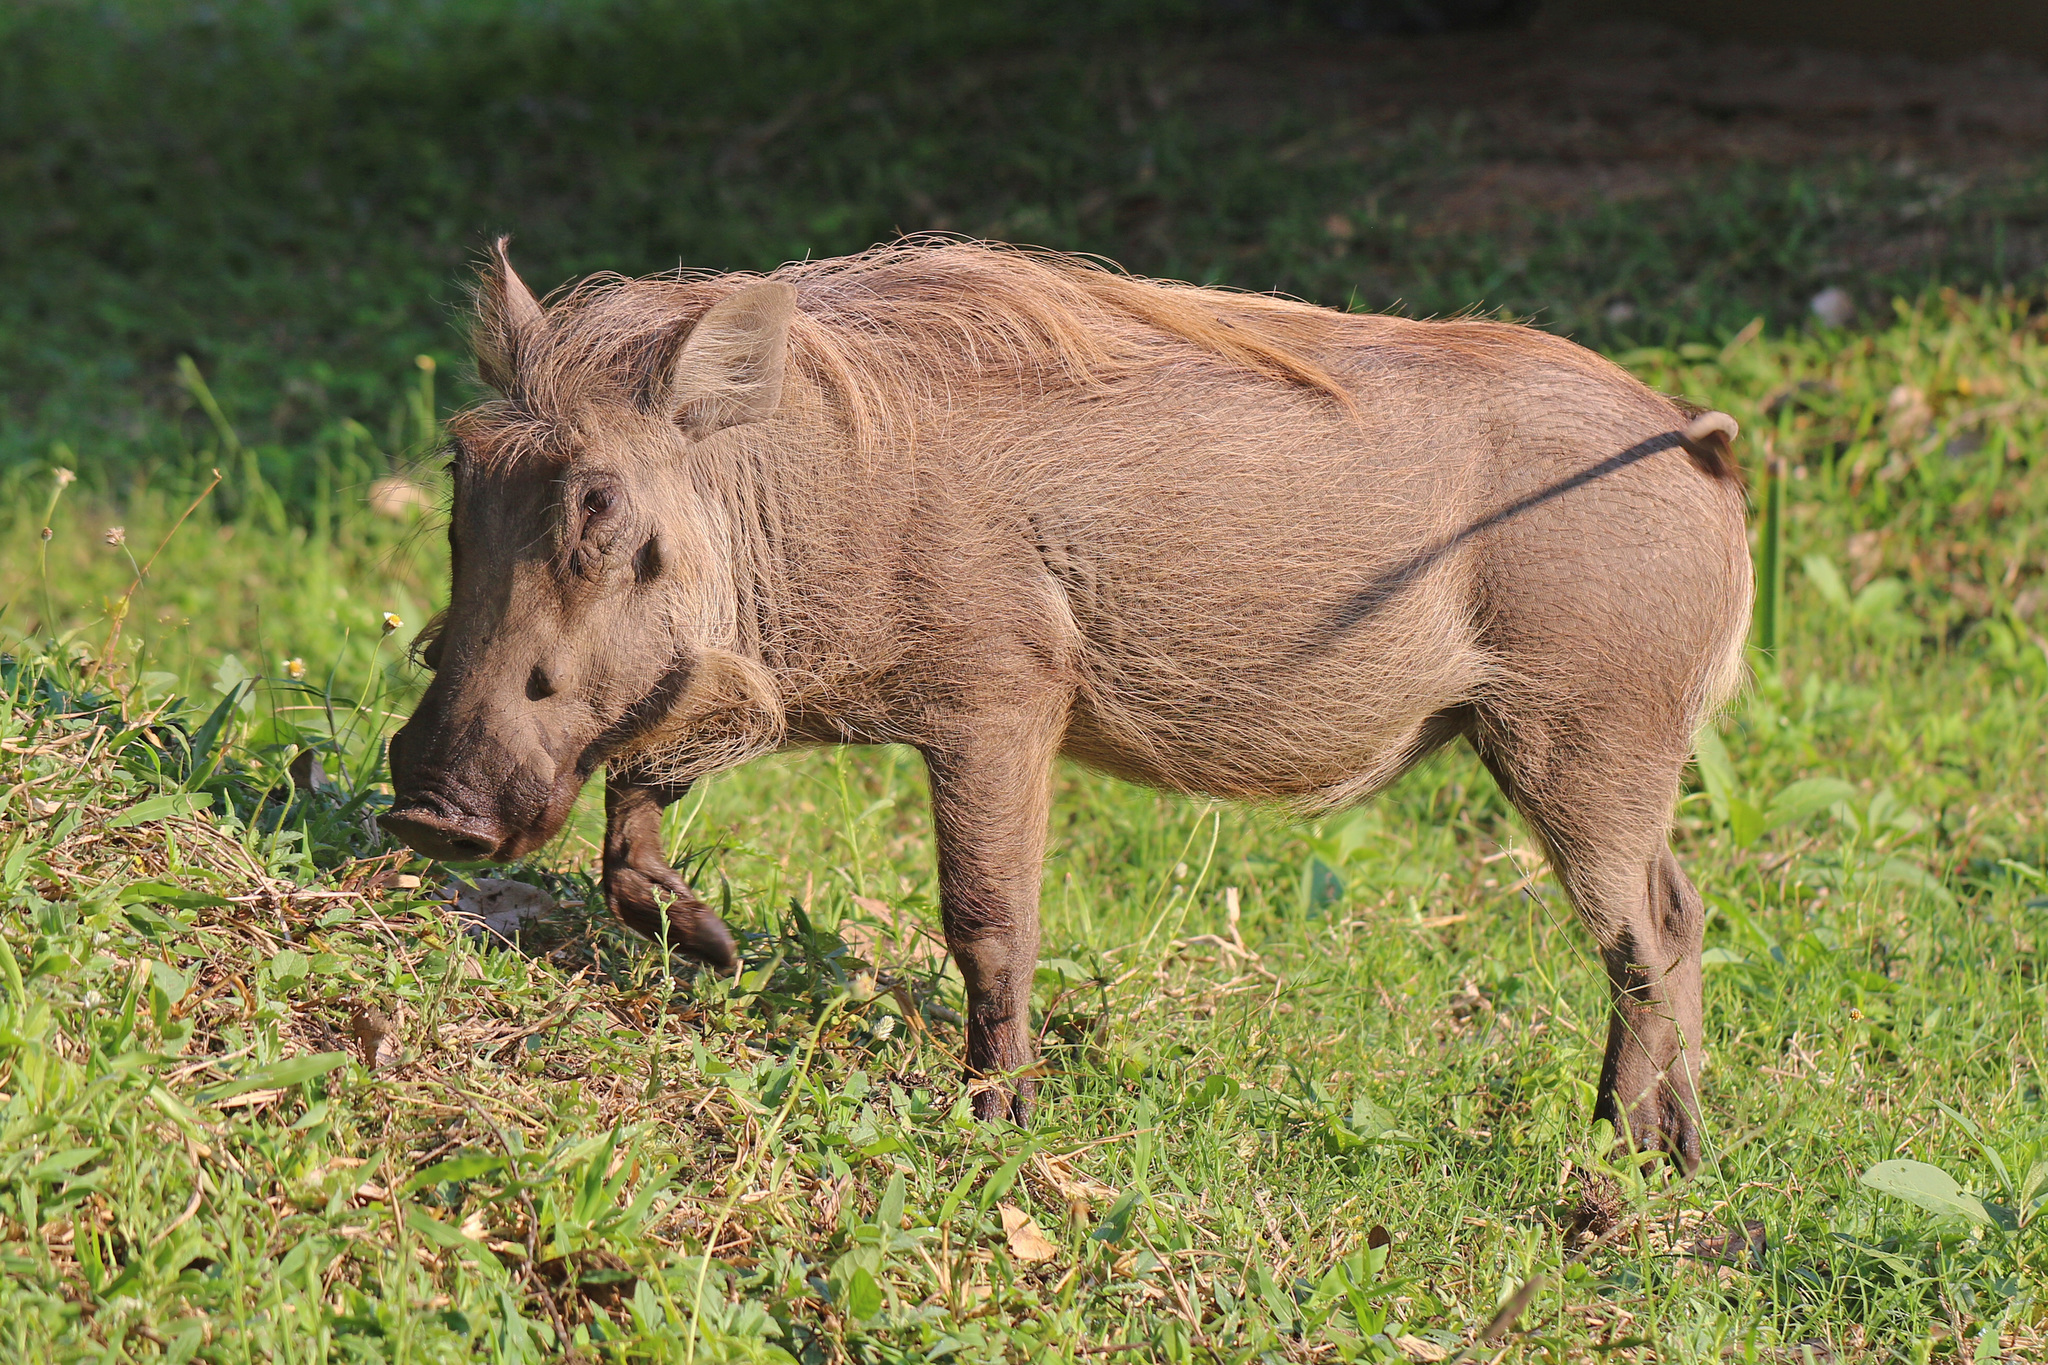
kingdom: Animalia
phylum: Chordata
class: Mammalia
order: Artiodactyla
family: Suidae
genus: Phacochoerus
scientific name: Phacochoerus africanus
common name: Common warthog
